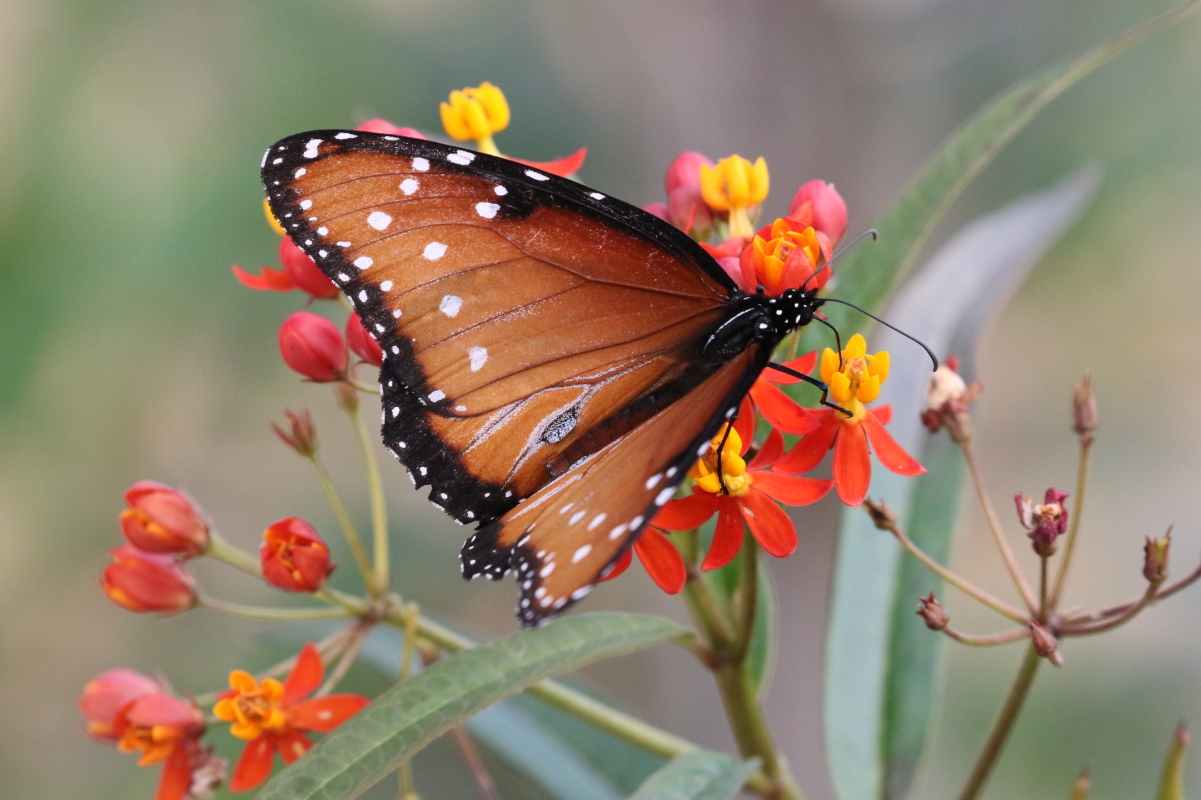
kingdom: Animalia
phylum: Arthropoda
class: Insecta
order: Lepidoptera
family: Nymphalidae
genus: Danaus
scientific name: Danaus gilippus
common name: Queen
